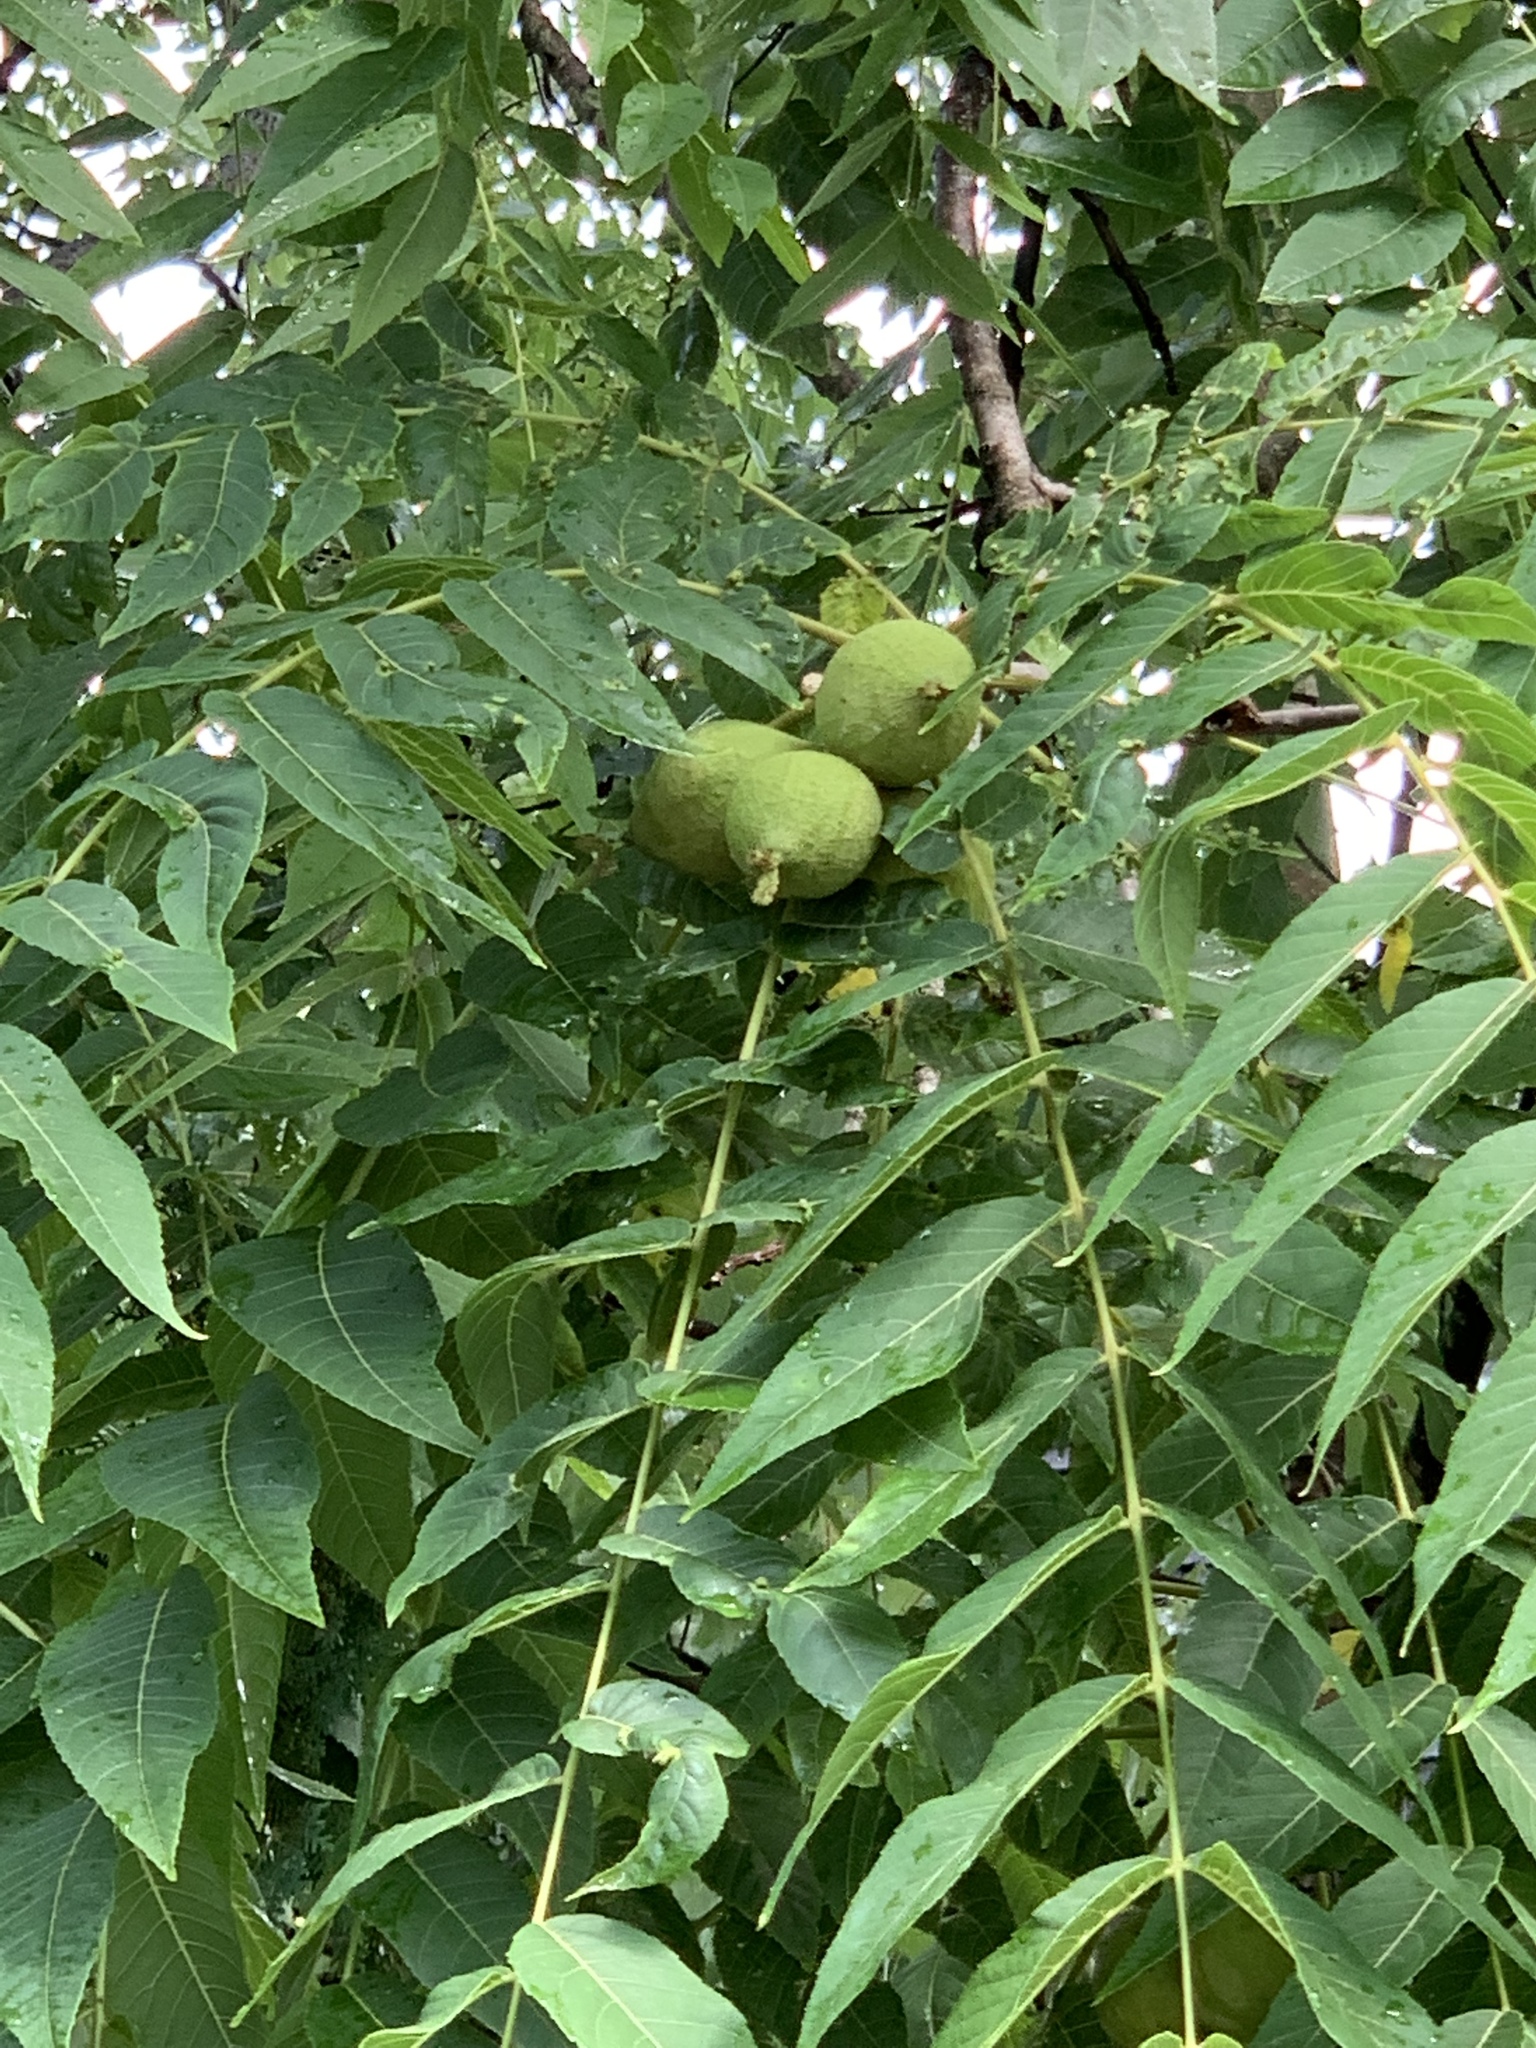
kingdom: Plantae
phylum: Tracheophyta
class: Magnoliopsida
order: Fagales
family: Juglandaceae
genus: Juglans
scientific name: Juglans nigra
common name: Black walnut
